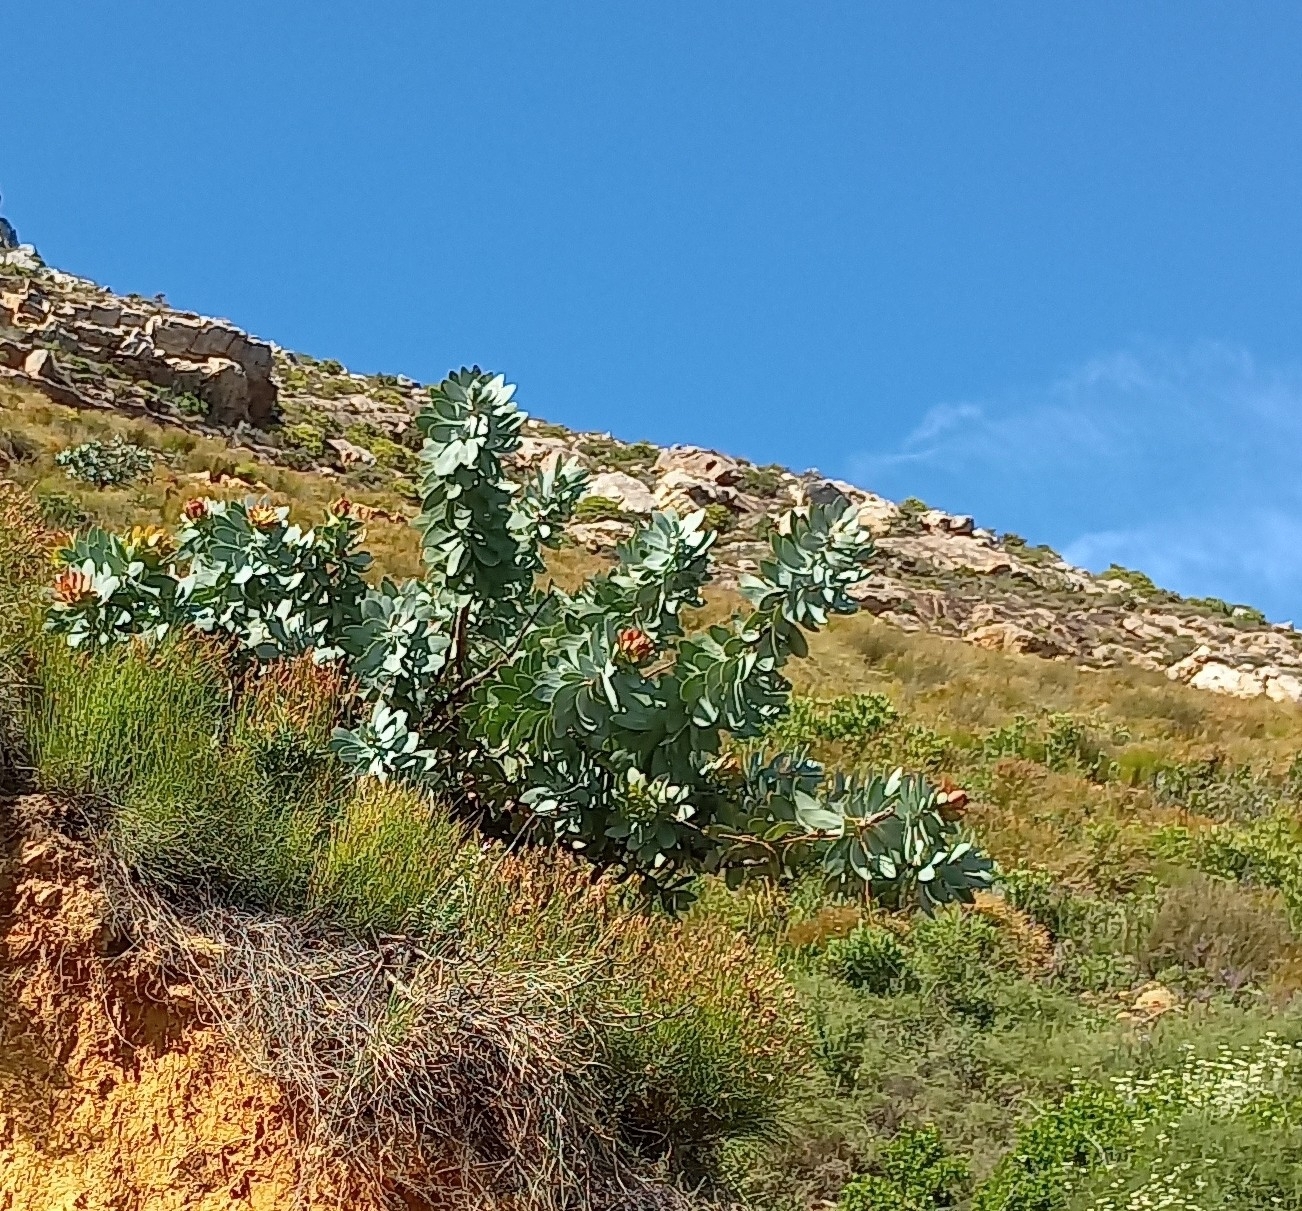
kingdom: Plantae
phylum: Tracheophyta
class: Magnoliopsida
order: Proteales
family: Proteaceae
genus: Protea
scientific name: Protea nitida
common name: Tree protea
